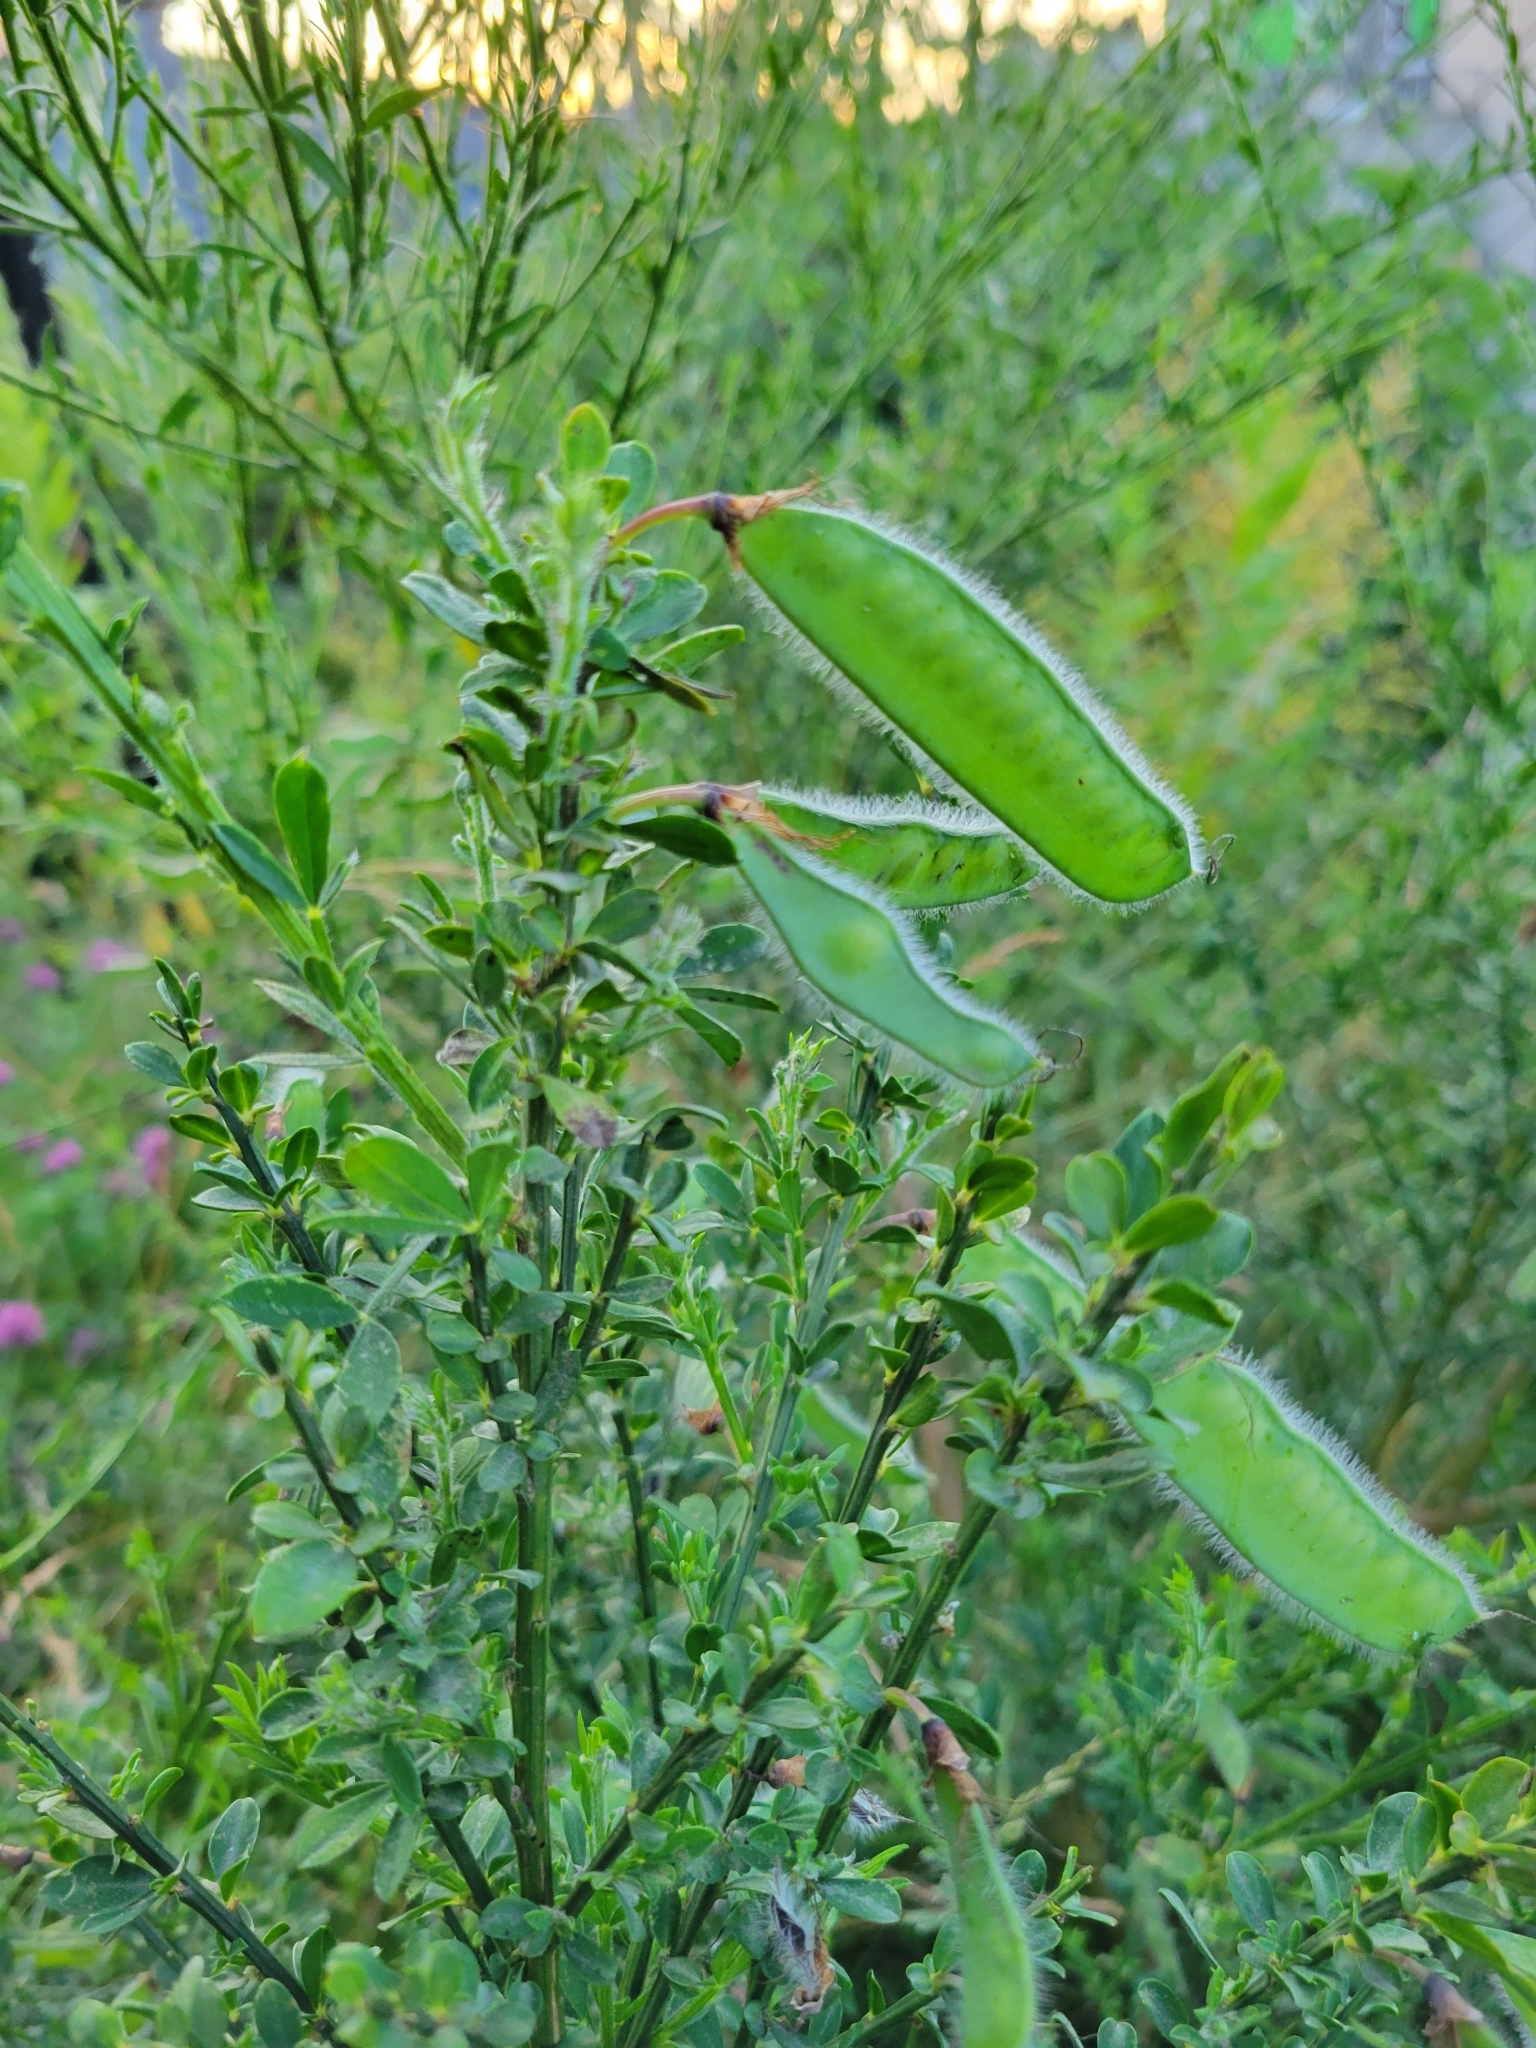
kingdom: Plantae
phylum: Tracheophyta
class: Magnoliopsida
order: Fabales
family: Fabaceae
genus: Cytisus
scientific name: Cytisus scoparius
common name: Scotch broom
